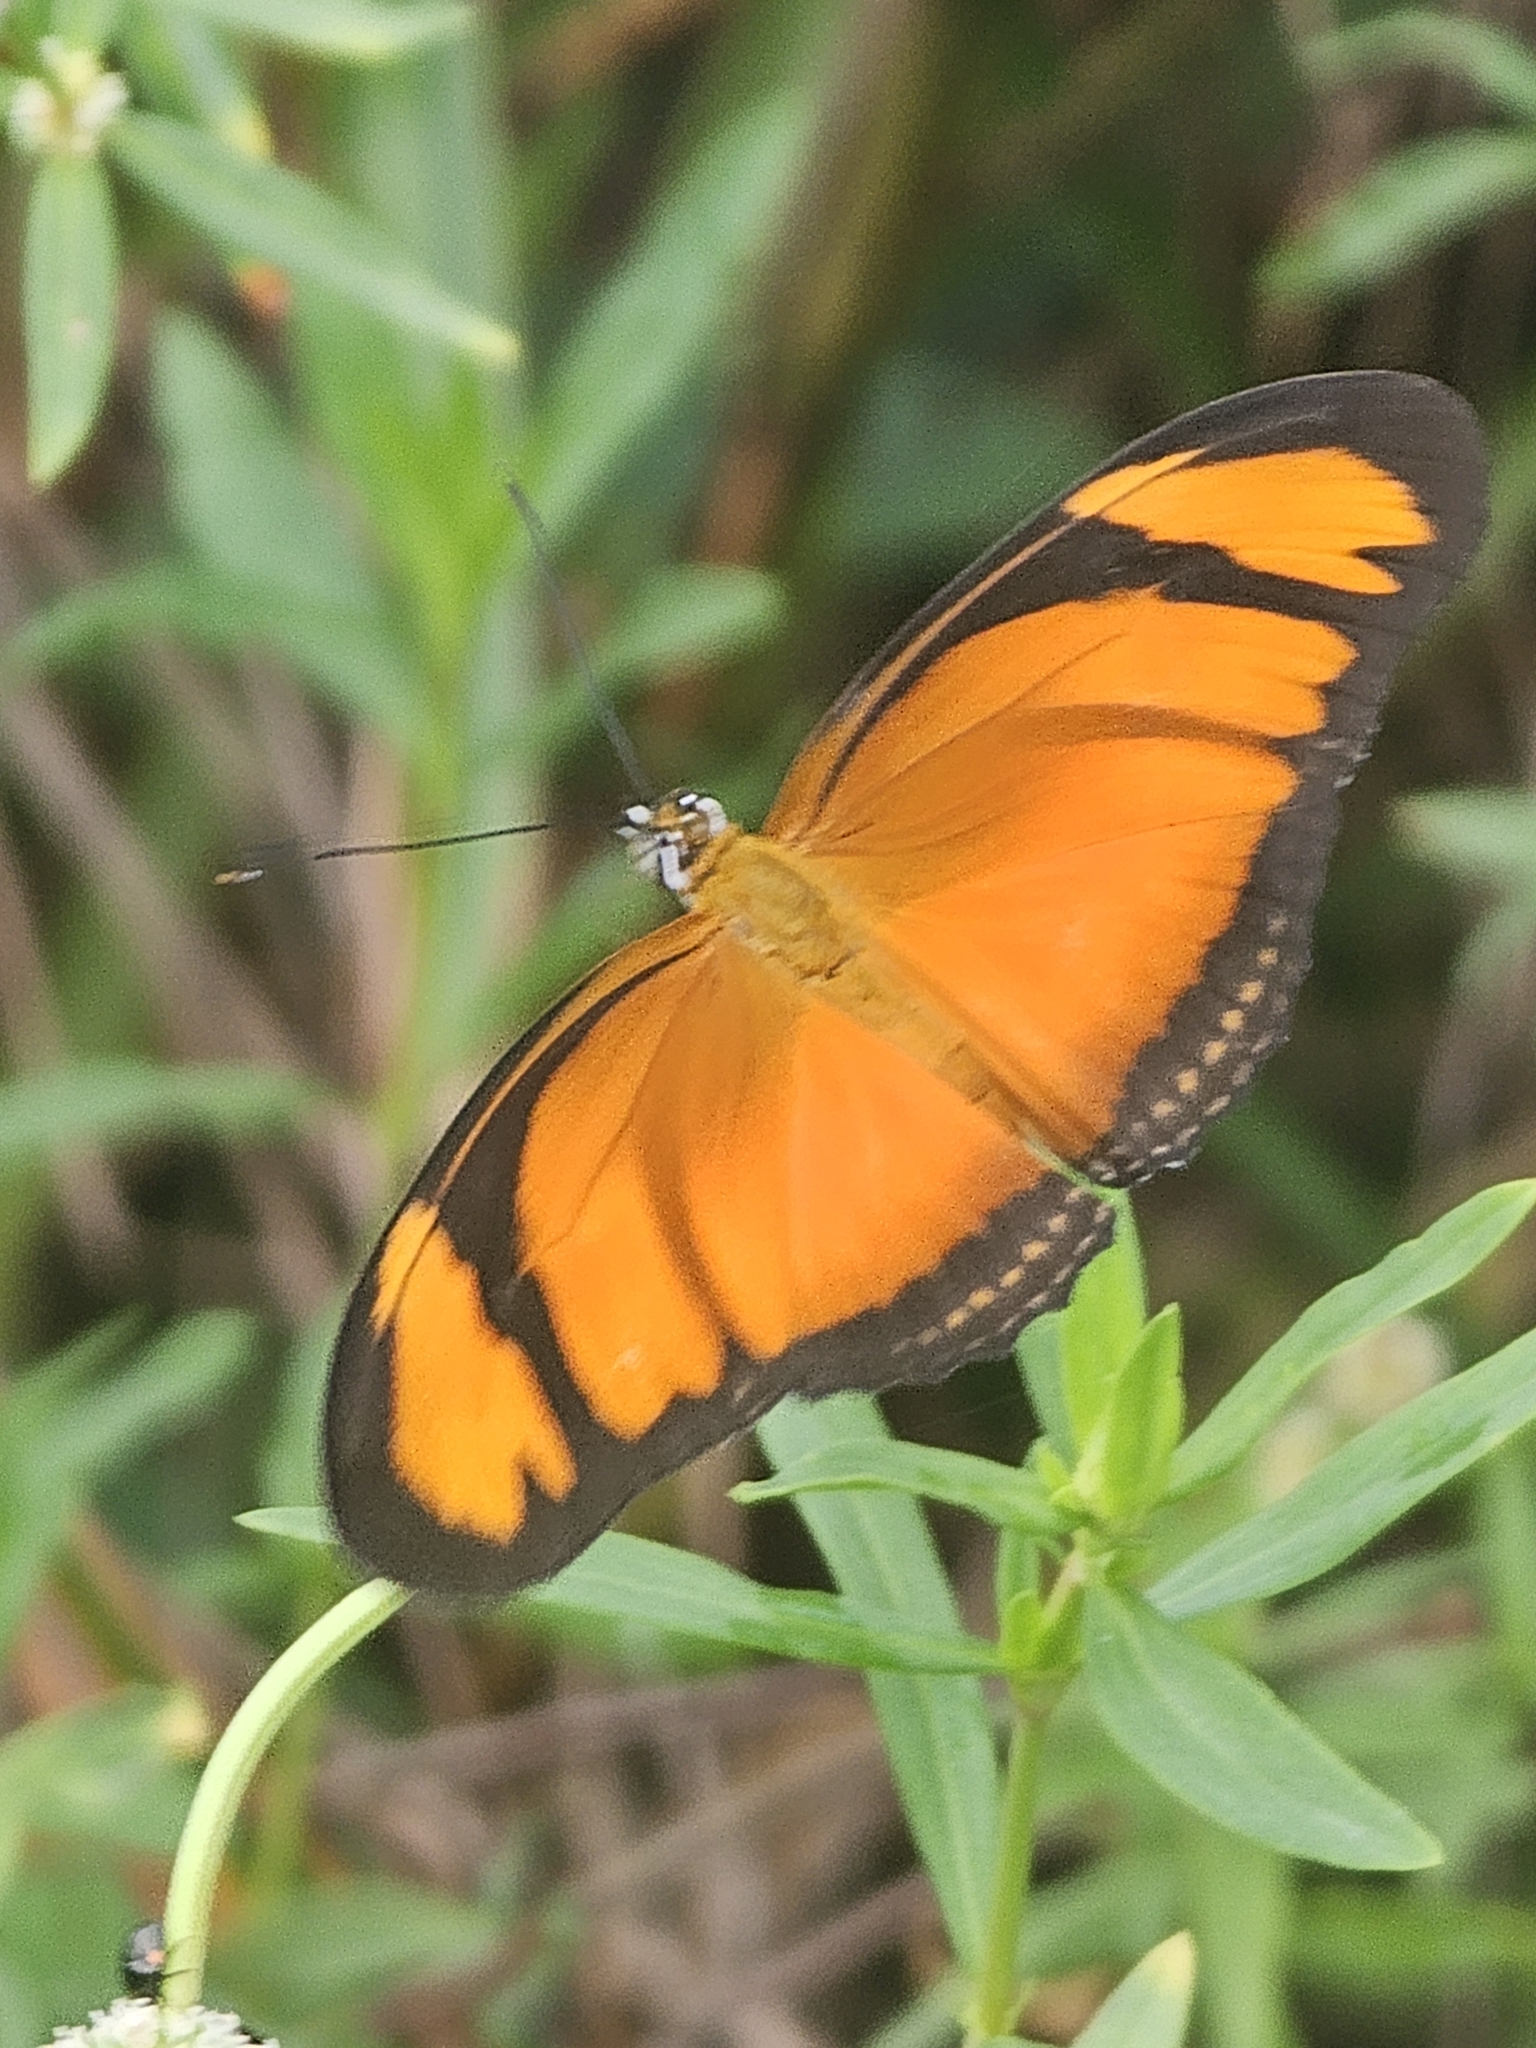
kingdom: Animalia
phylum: Arthropoda
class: Insecta
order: Lepidoptera
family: Nymphalidae
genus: Dryas
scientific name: Dryas iulia
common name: Flambeau
